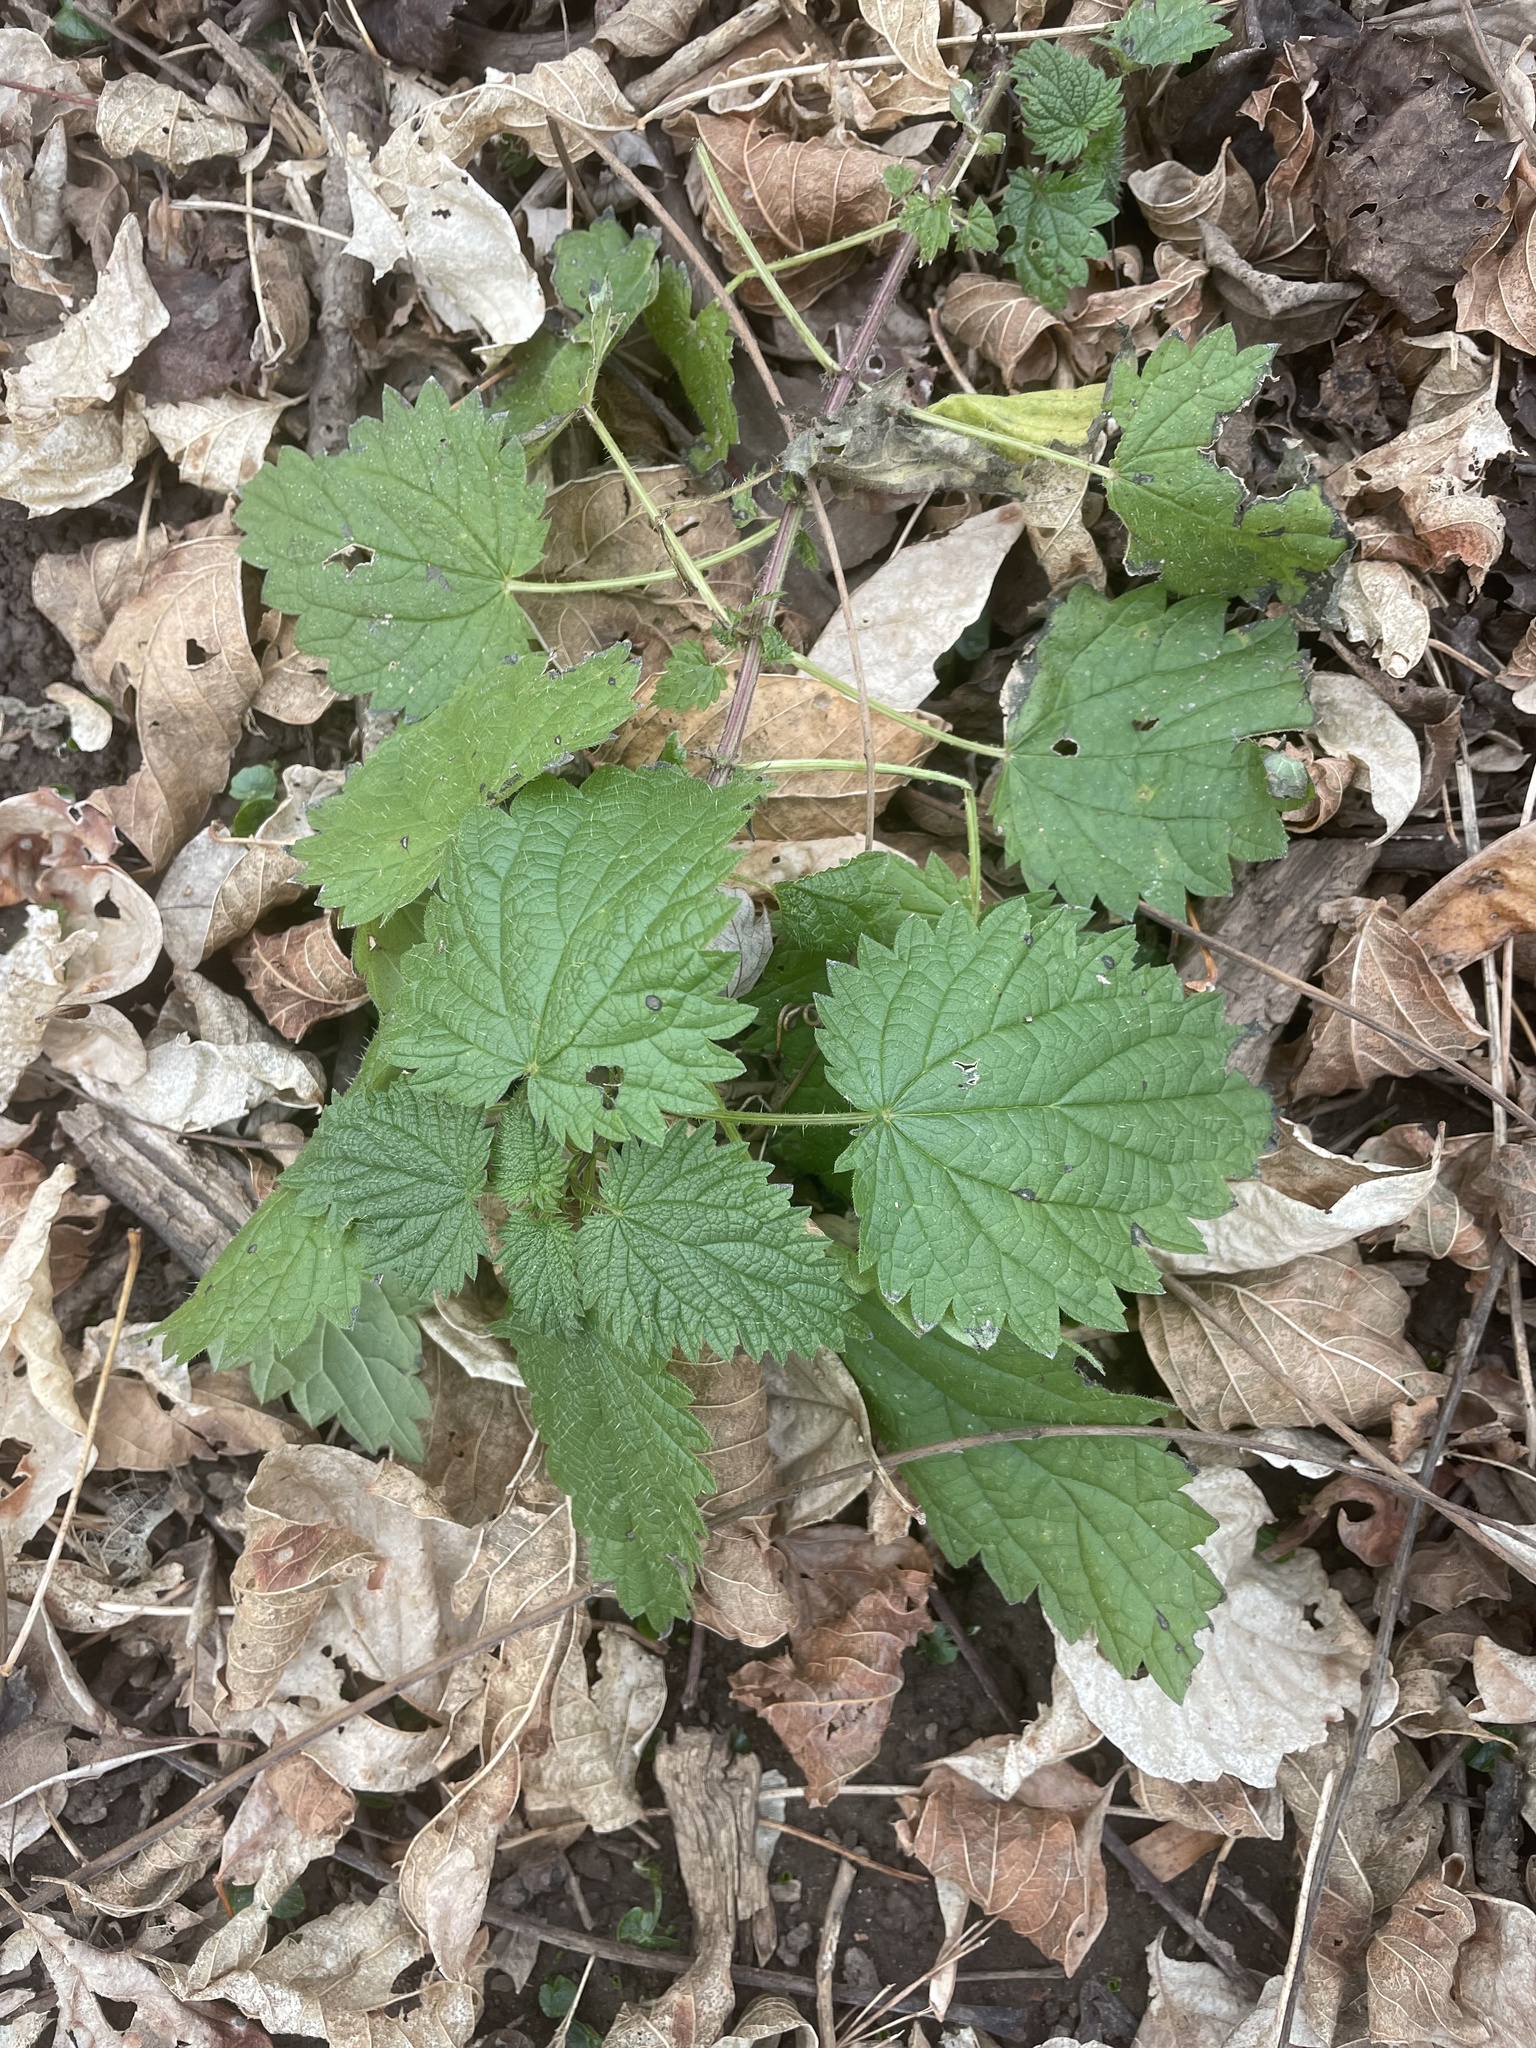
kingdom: Plantae
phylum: Tracheophyta
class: Magnoliopsida
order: Rosales
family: Urticaceae
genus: Urtica
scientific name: Urtica dioica
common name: Common nettle
